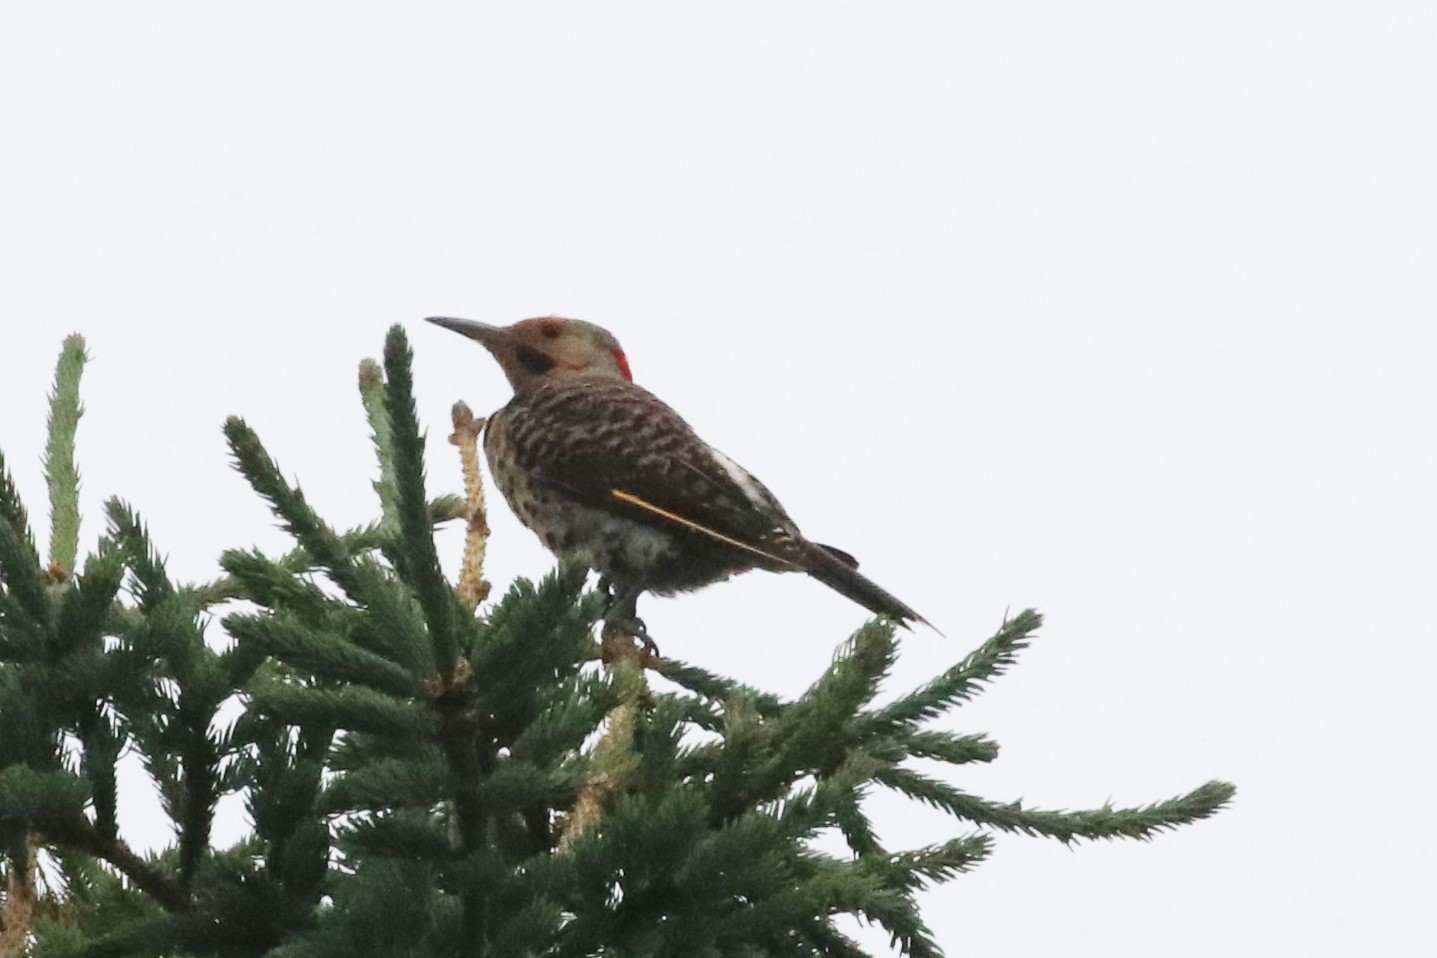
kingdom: Animalia
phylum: Chordata
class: Aves
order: Piciformes
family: Picidae
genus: Colaptes
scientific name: Colaptes auratus
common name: Northern flicker
